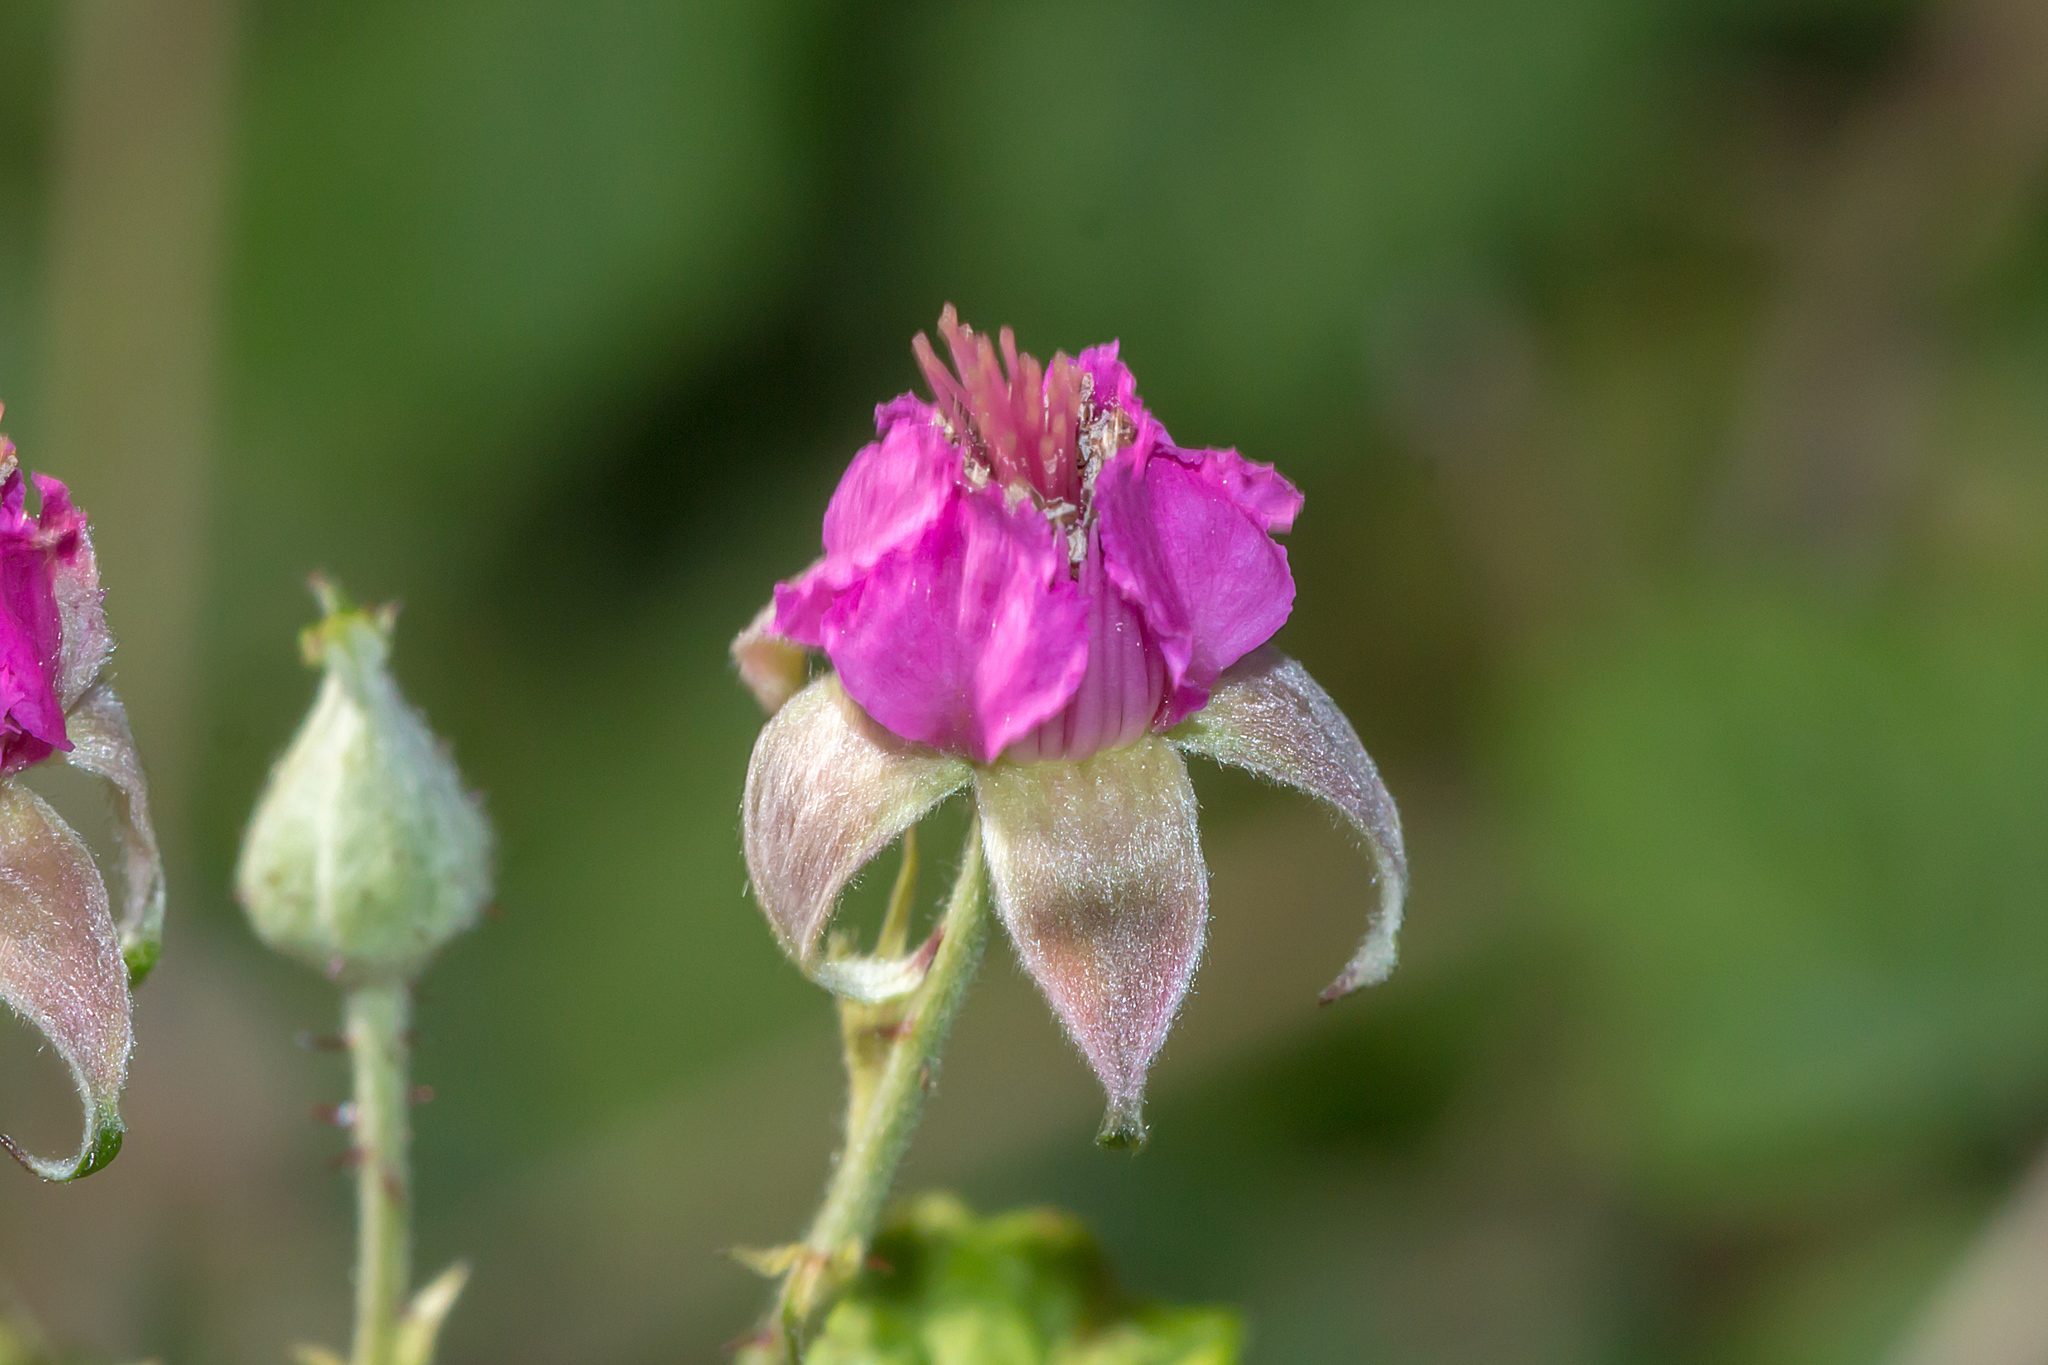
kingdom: Plantae
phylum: Tracheophyta
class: Magnoliopsida
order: Rosales
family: Rosaceae
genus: Rubus
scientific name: Rubus parvifolius
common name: Threeleaf blackberry
